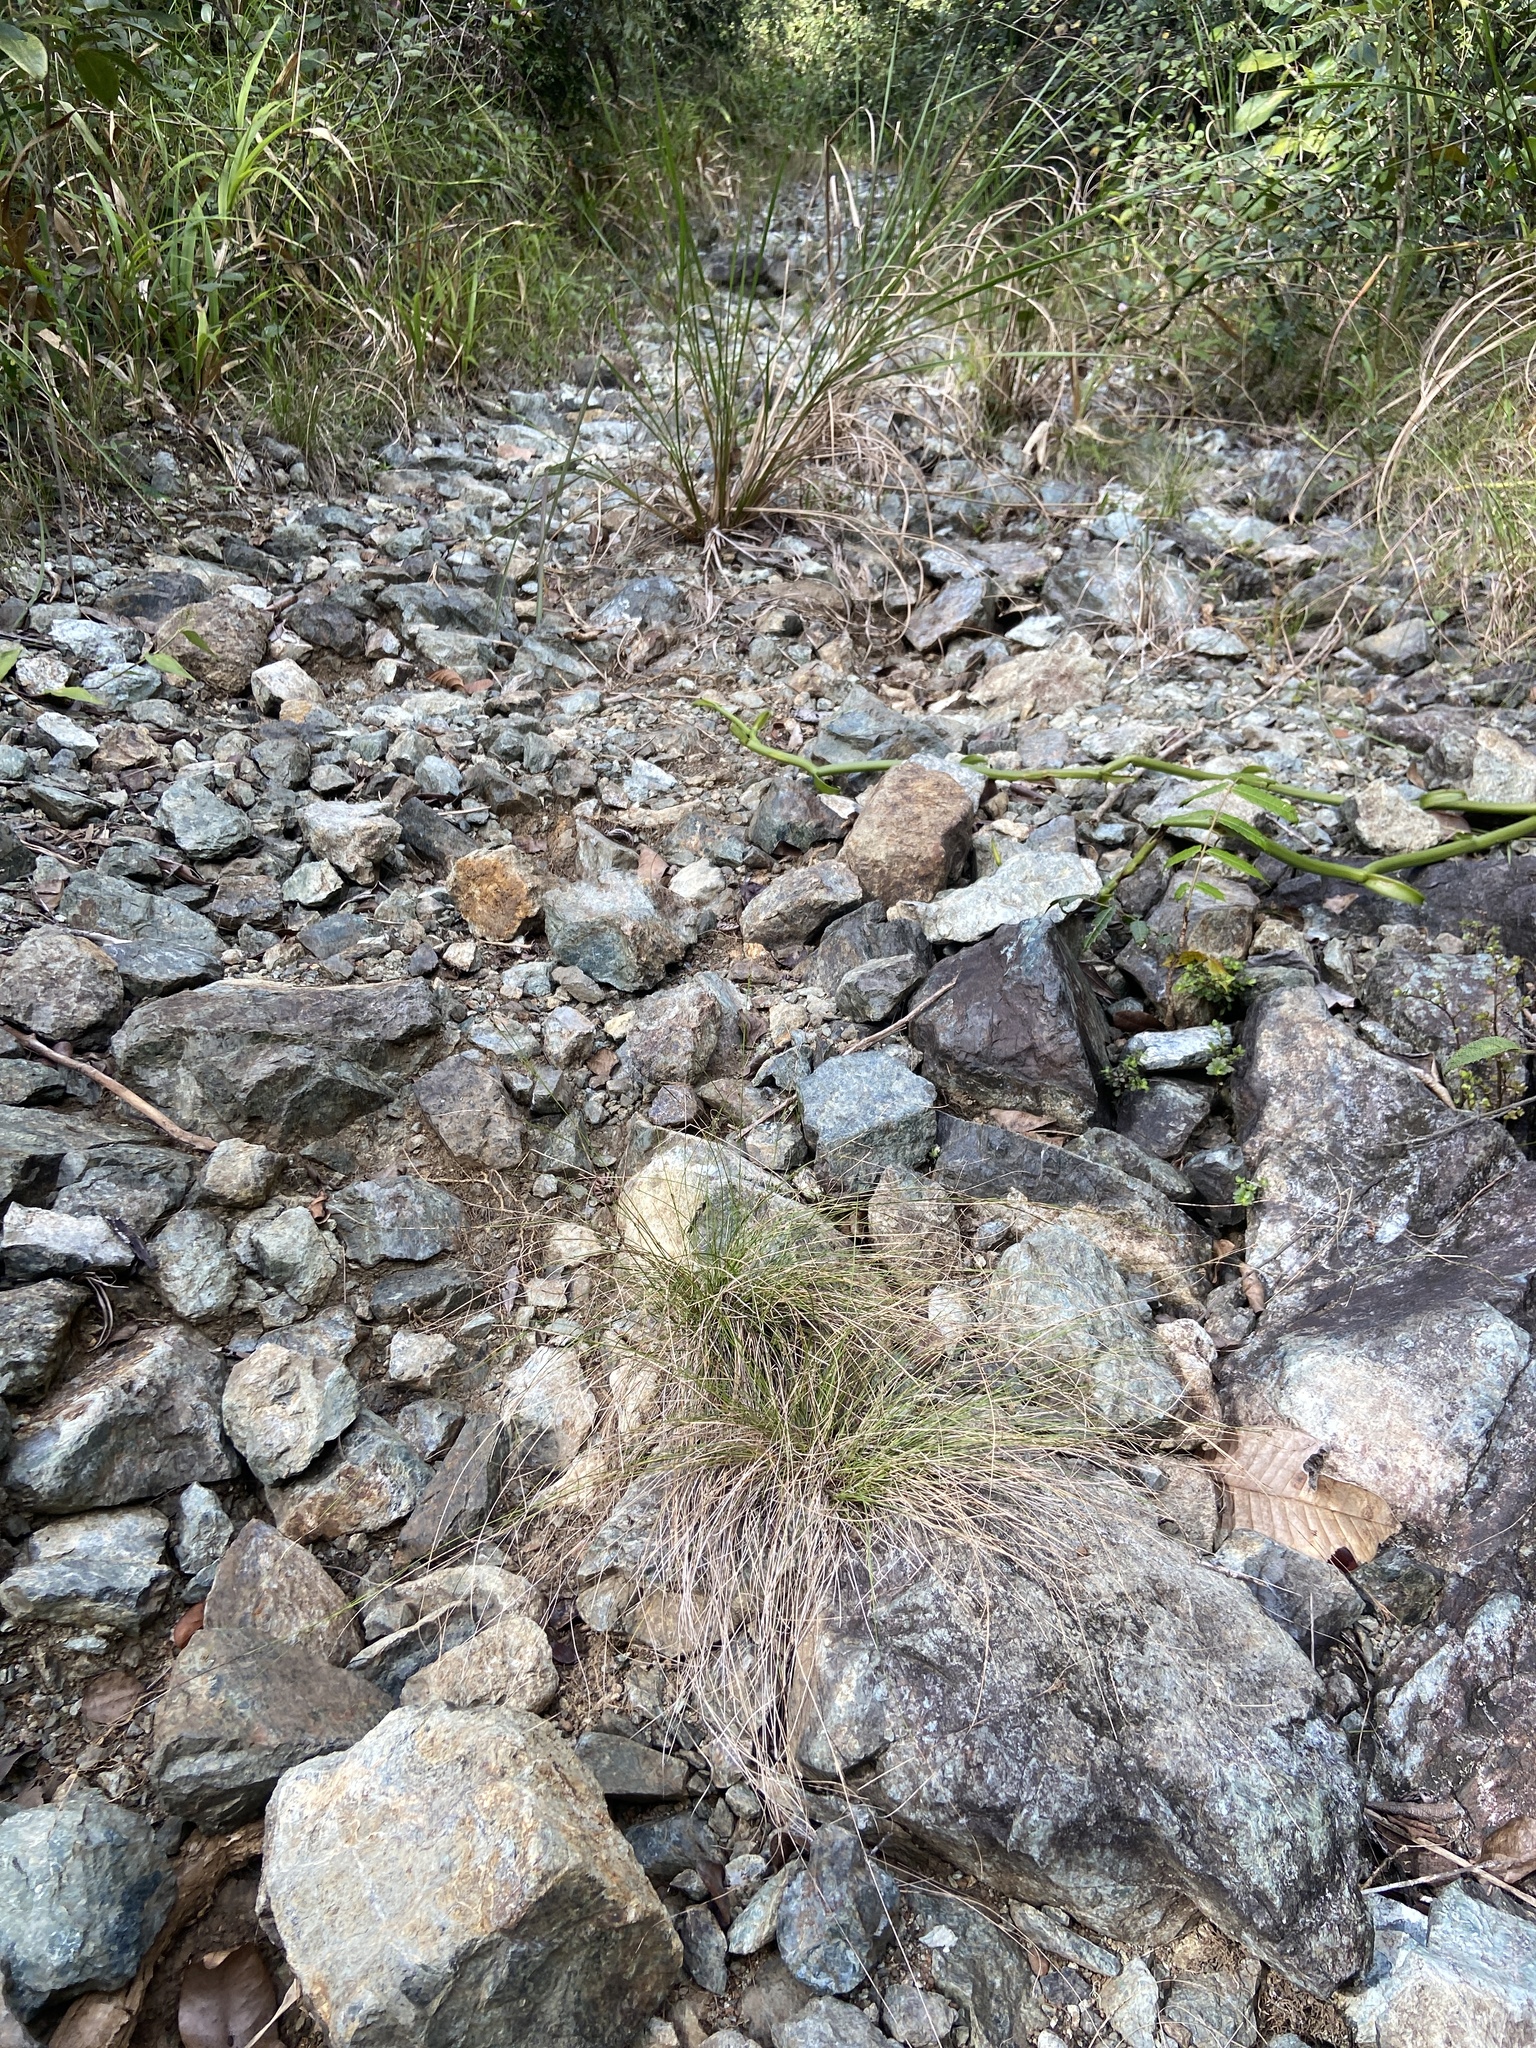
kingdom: Plantae
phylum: Tracheophyta
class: Liliopsida
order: Poales
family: Cyperaceae
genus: Rhynchospora
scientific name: Rhynchospora lindeniana
